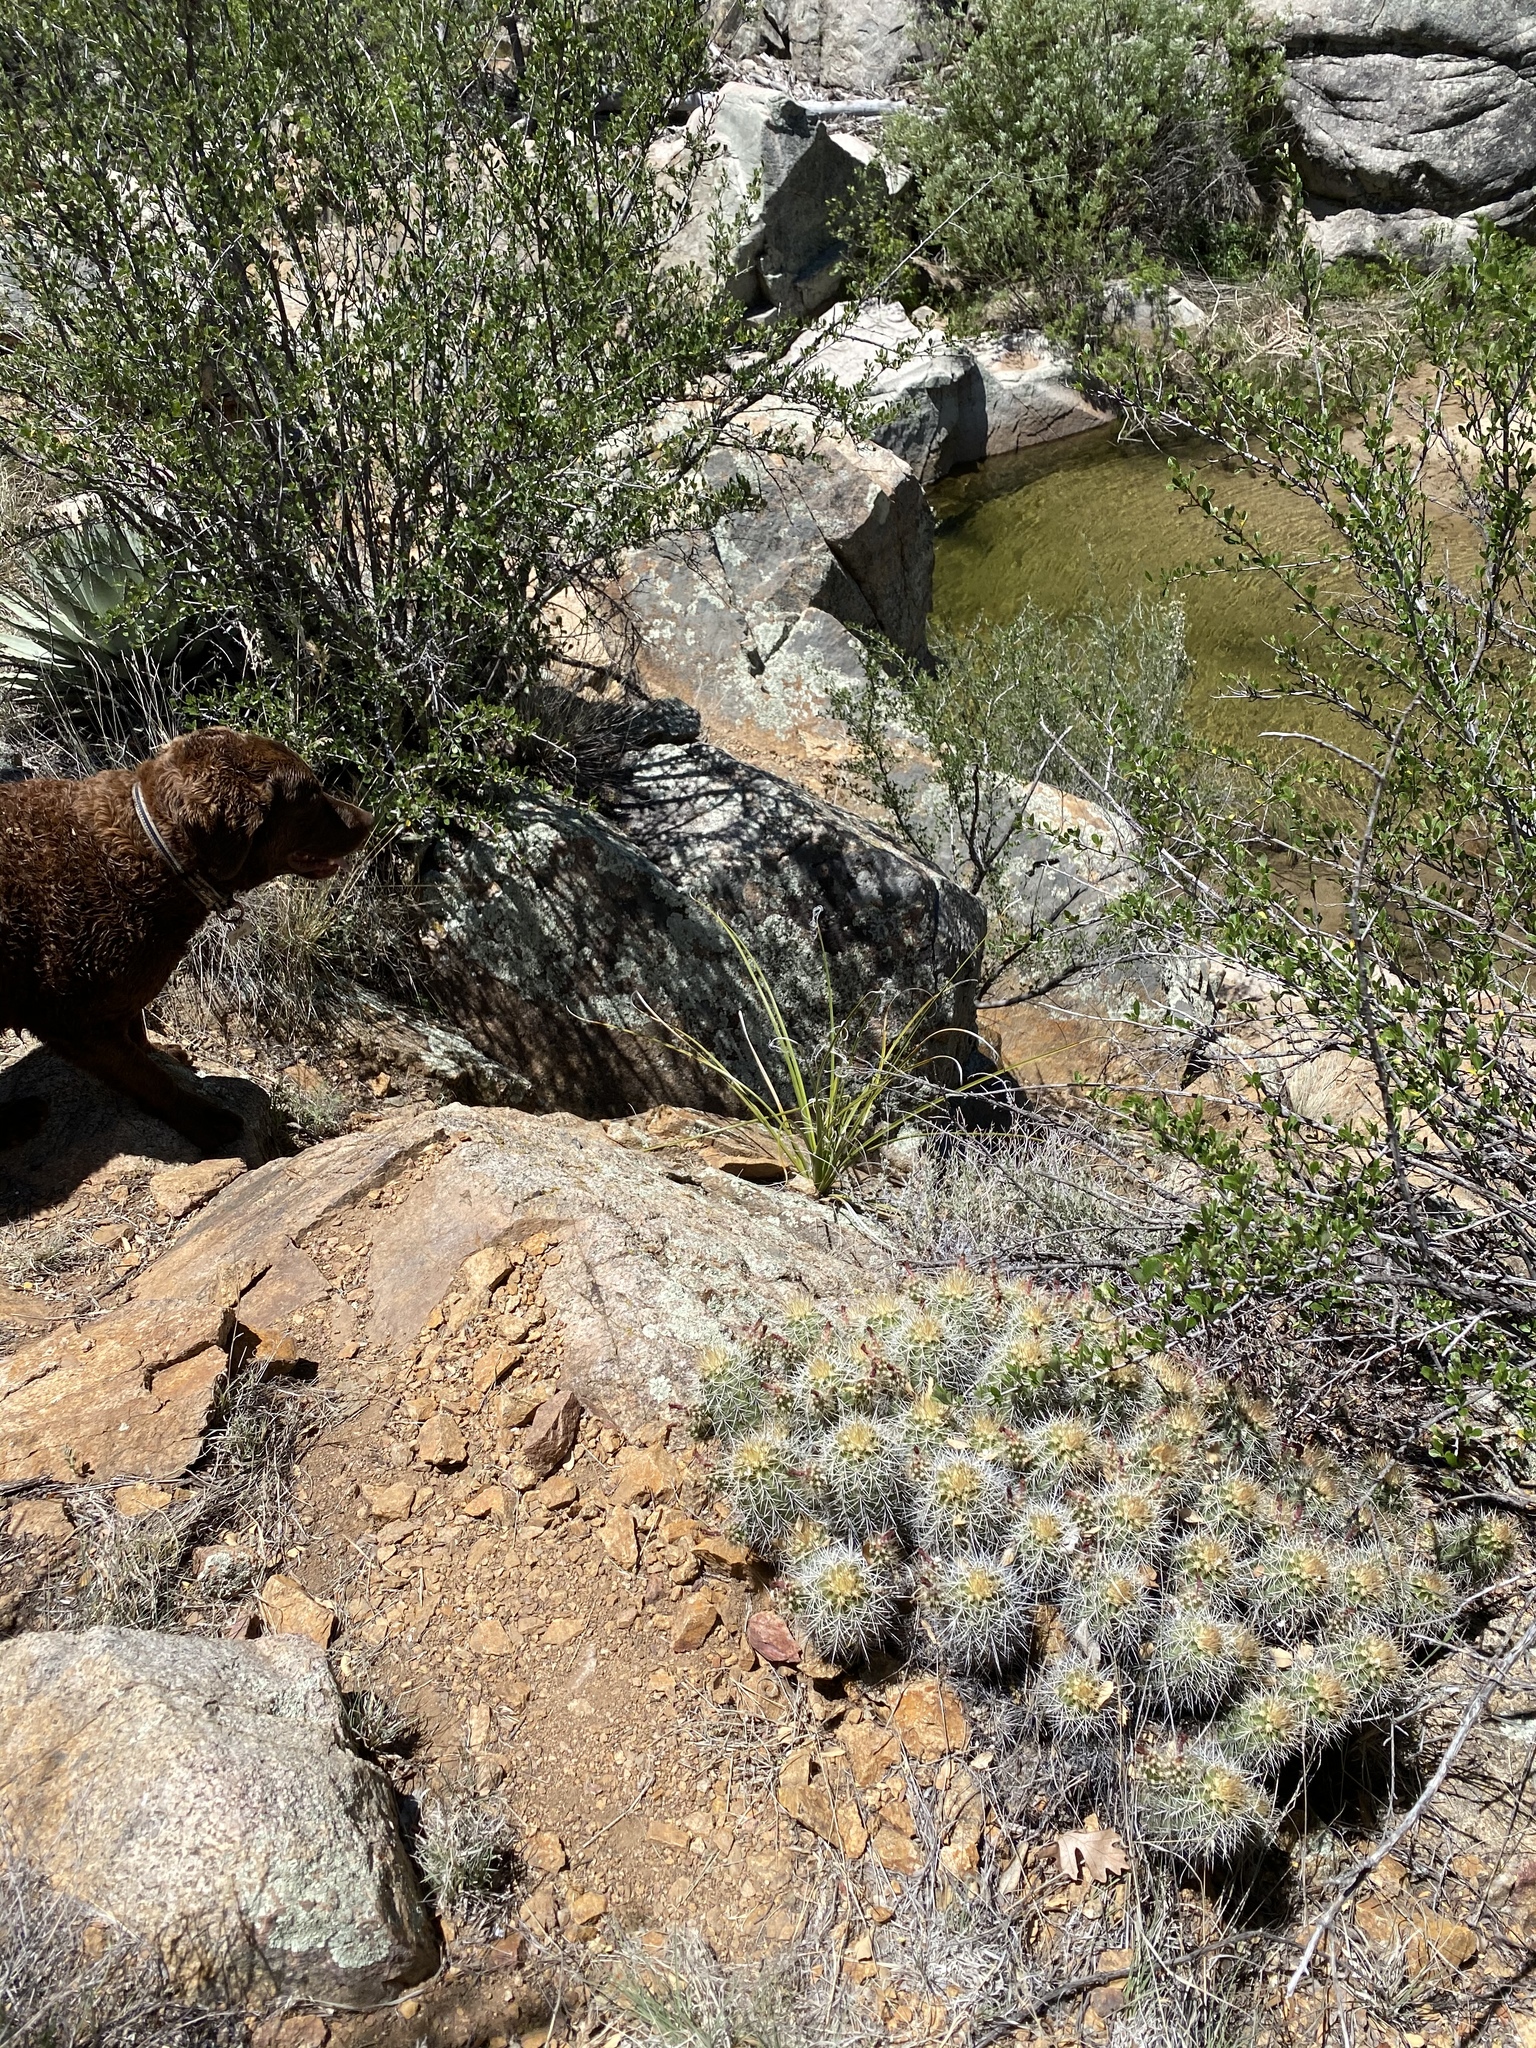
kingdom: Plantae
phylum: Tracheophyta
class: Magnoliopsida
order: Caryophyllales
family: Cactaceae
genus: Echinocereus
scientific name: Echinocereus yavapaiensis
